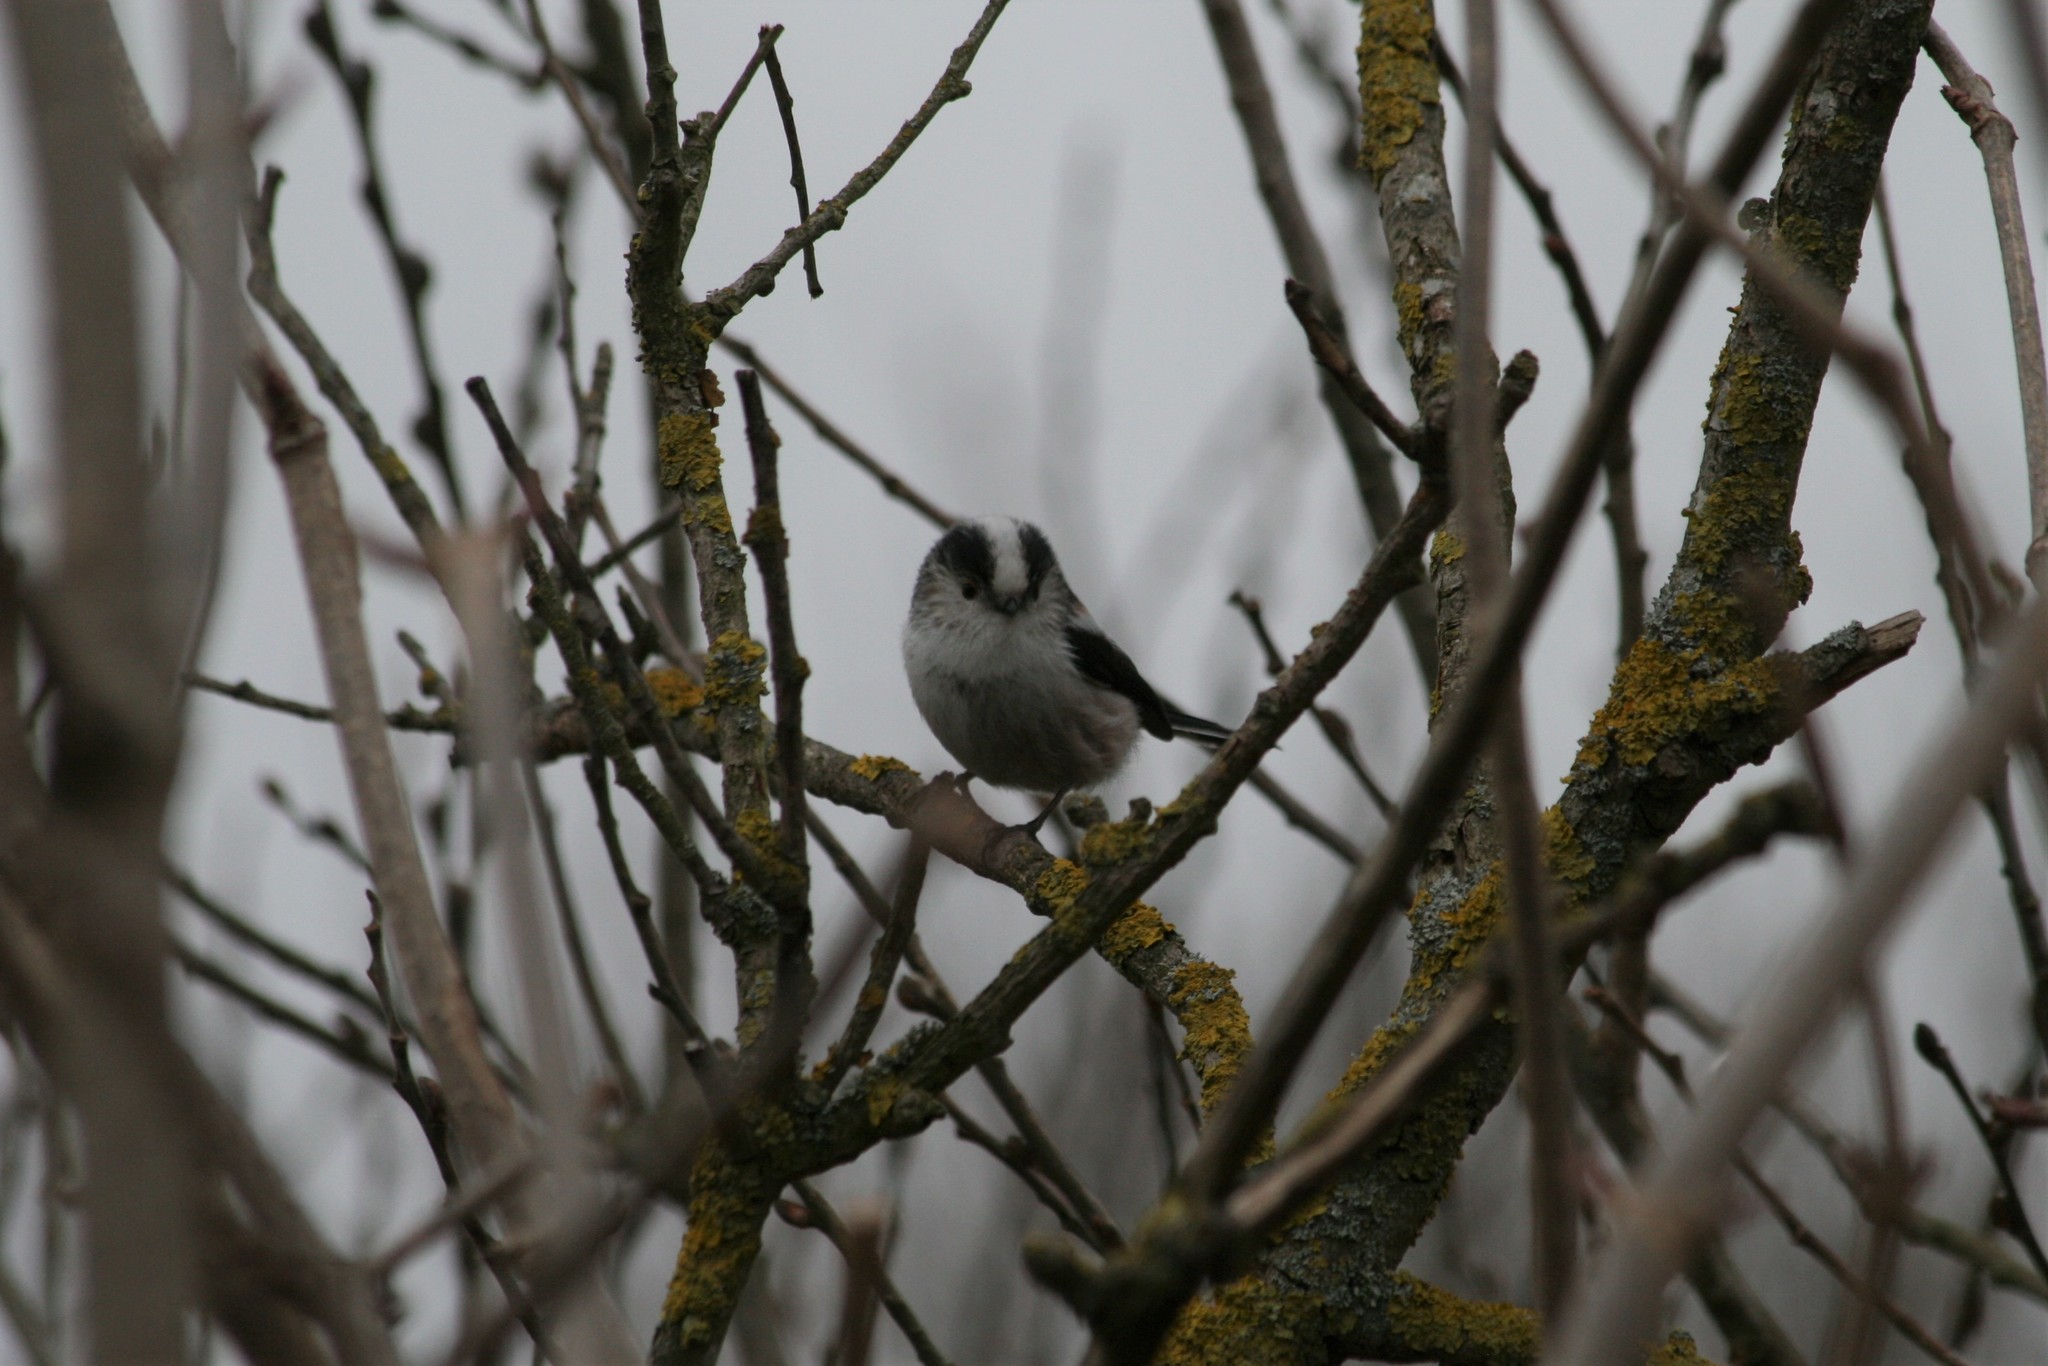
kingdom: Animalia
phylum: Chordata
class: Aves
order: Passeriformes
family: Aegithalidae
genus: Aegithalos
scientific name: Aegithalos caudatus
